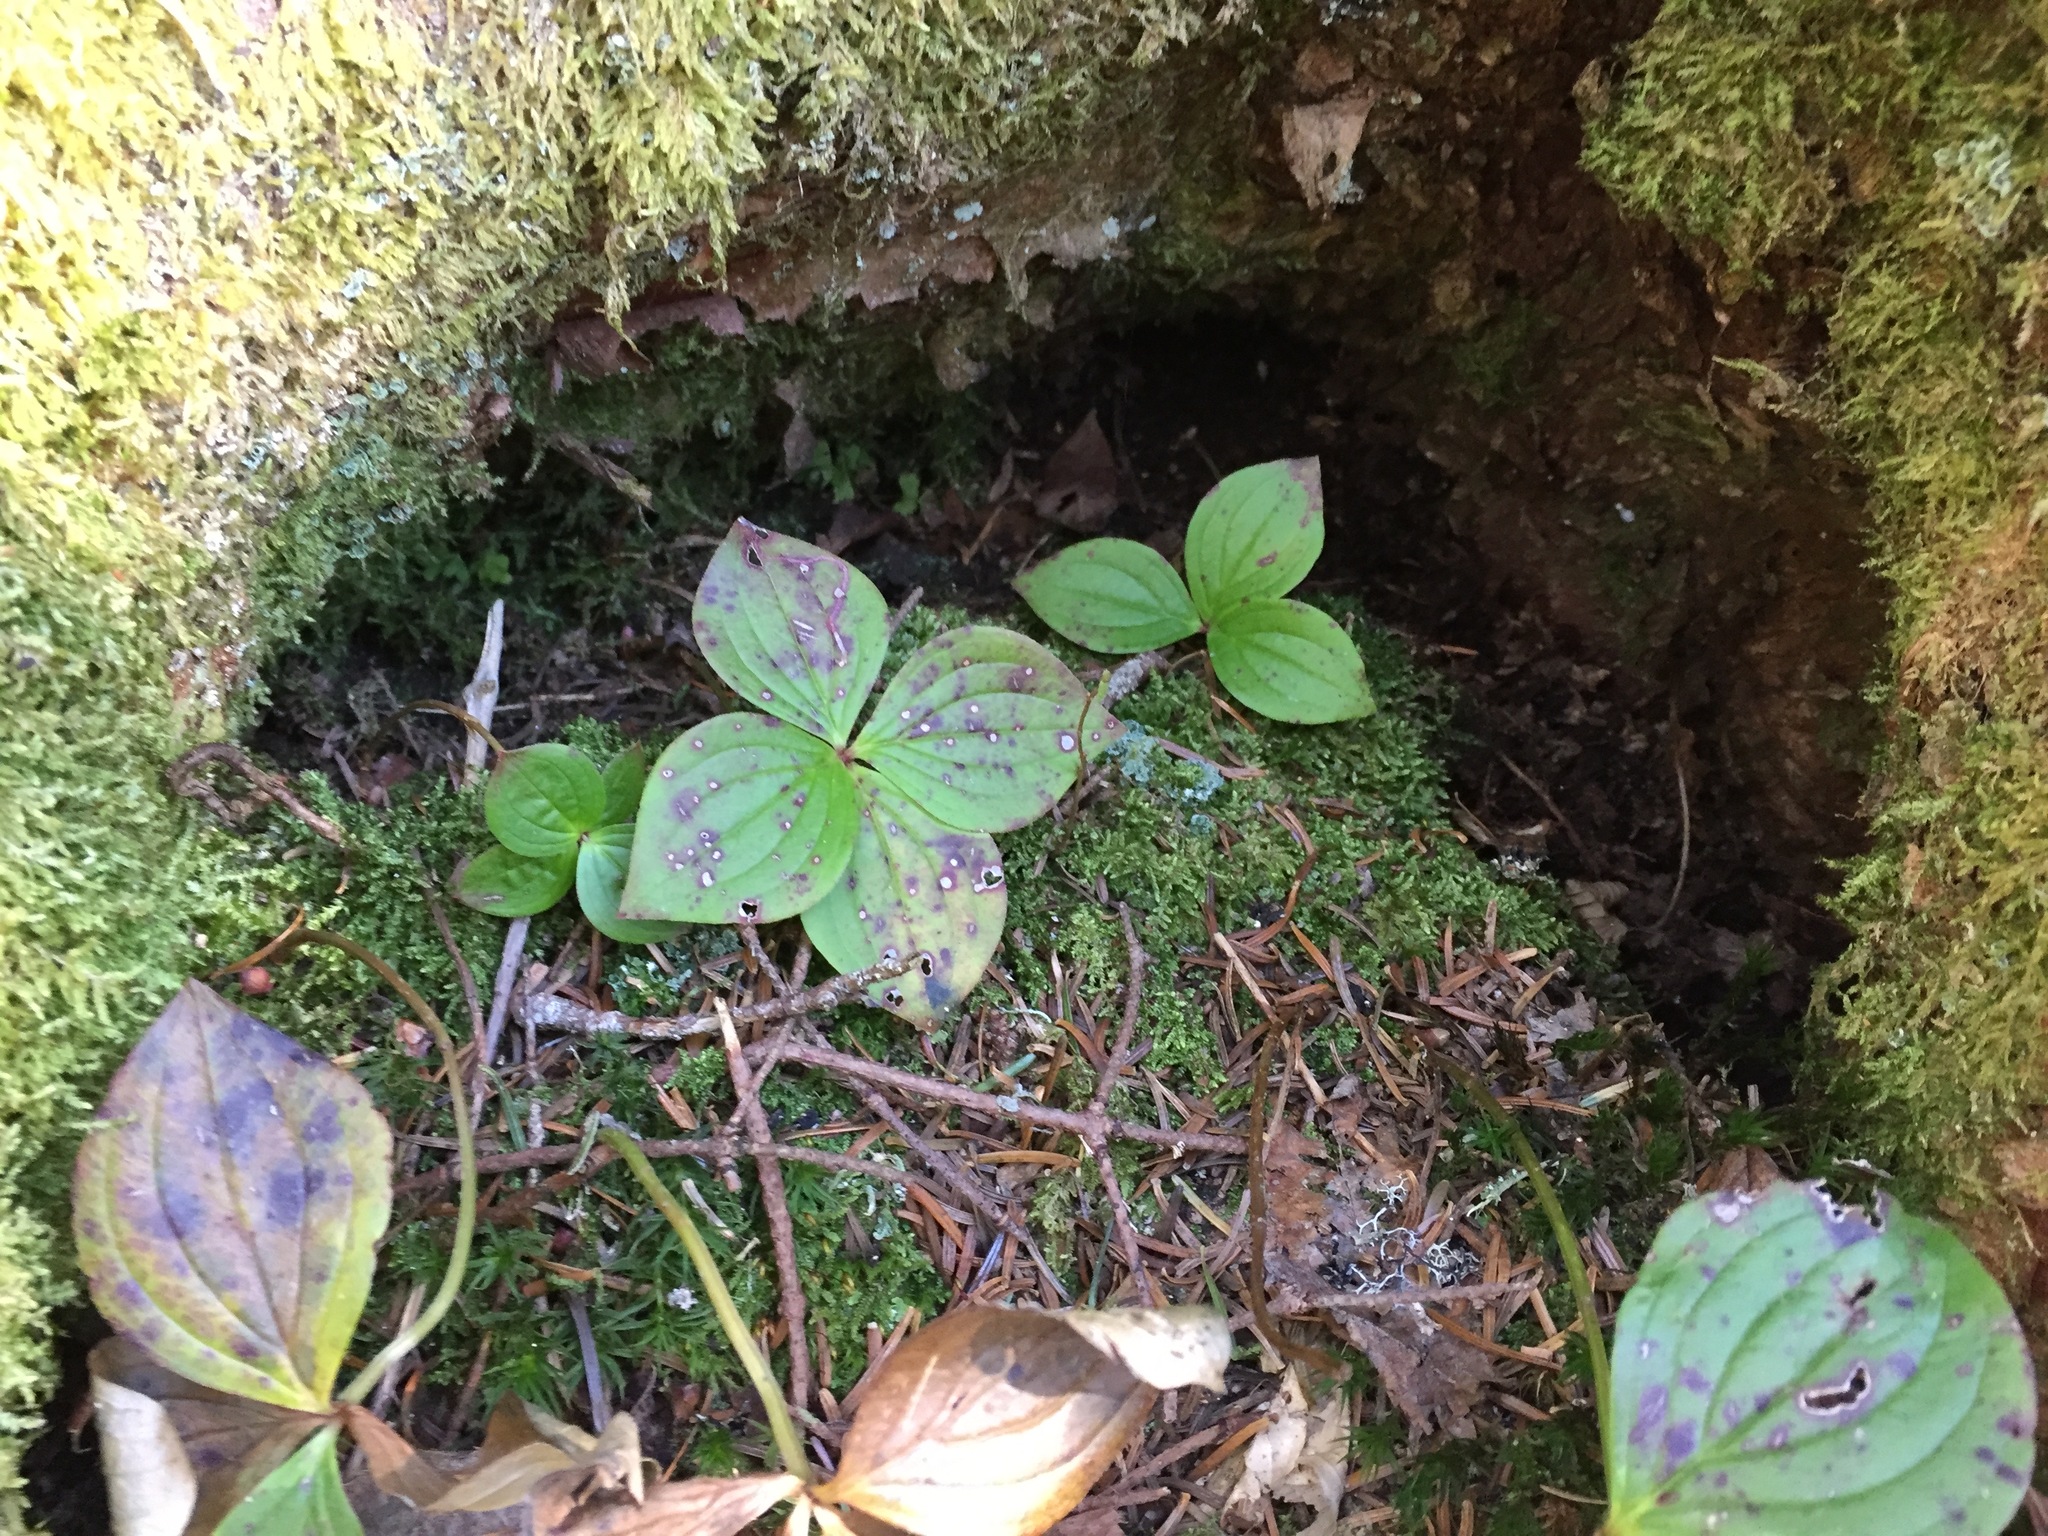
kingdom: Plantae
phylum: Tracheophyta
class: Magnoliopsida
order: Cornales
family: Cornaceae
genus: Cornus
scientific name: Cornus canadensis
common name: Creeping dogwood
